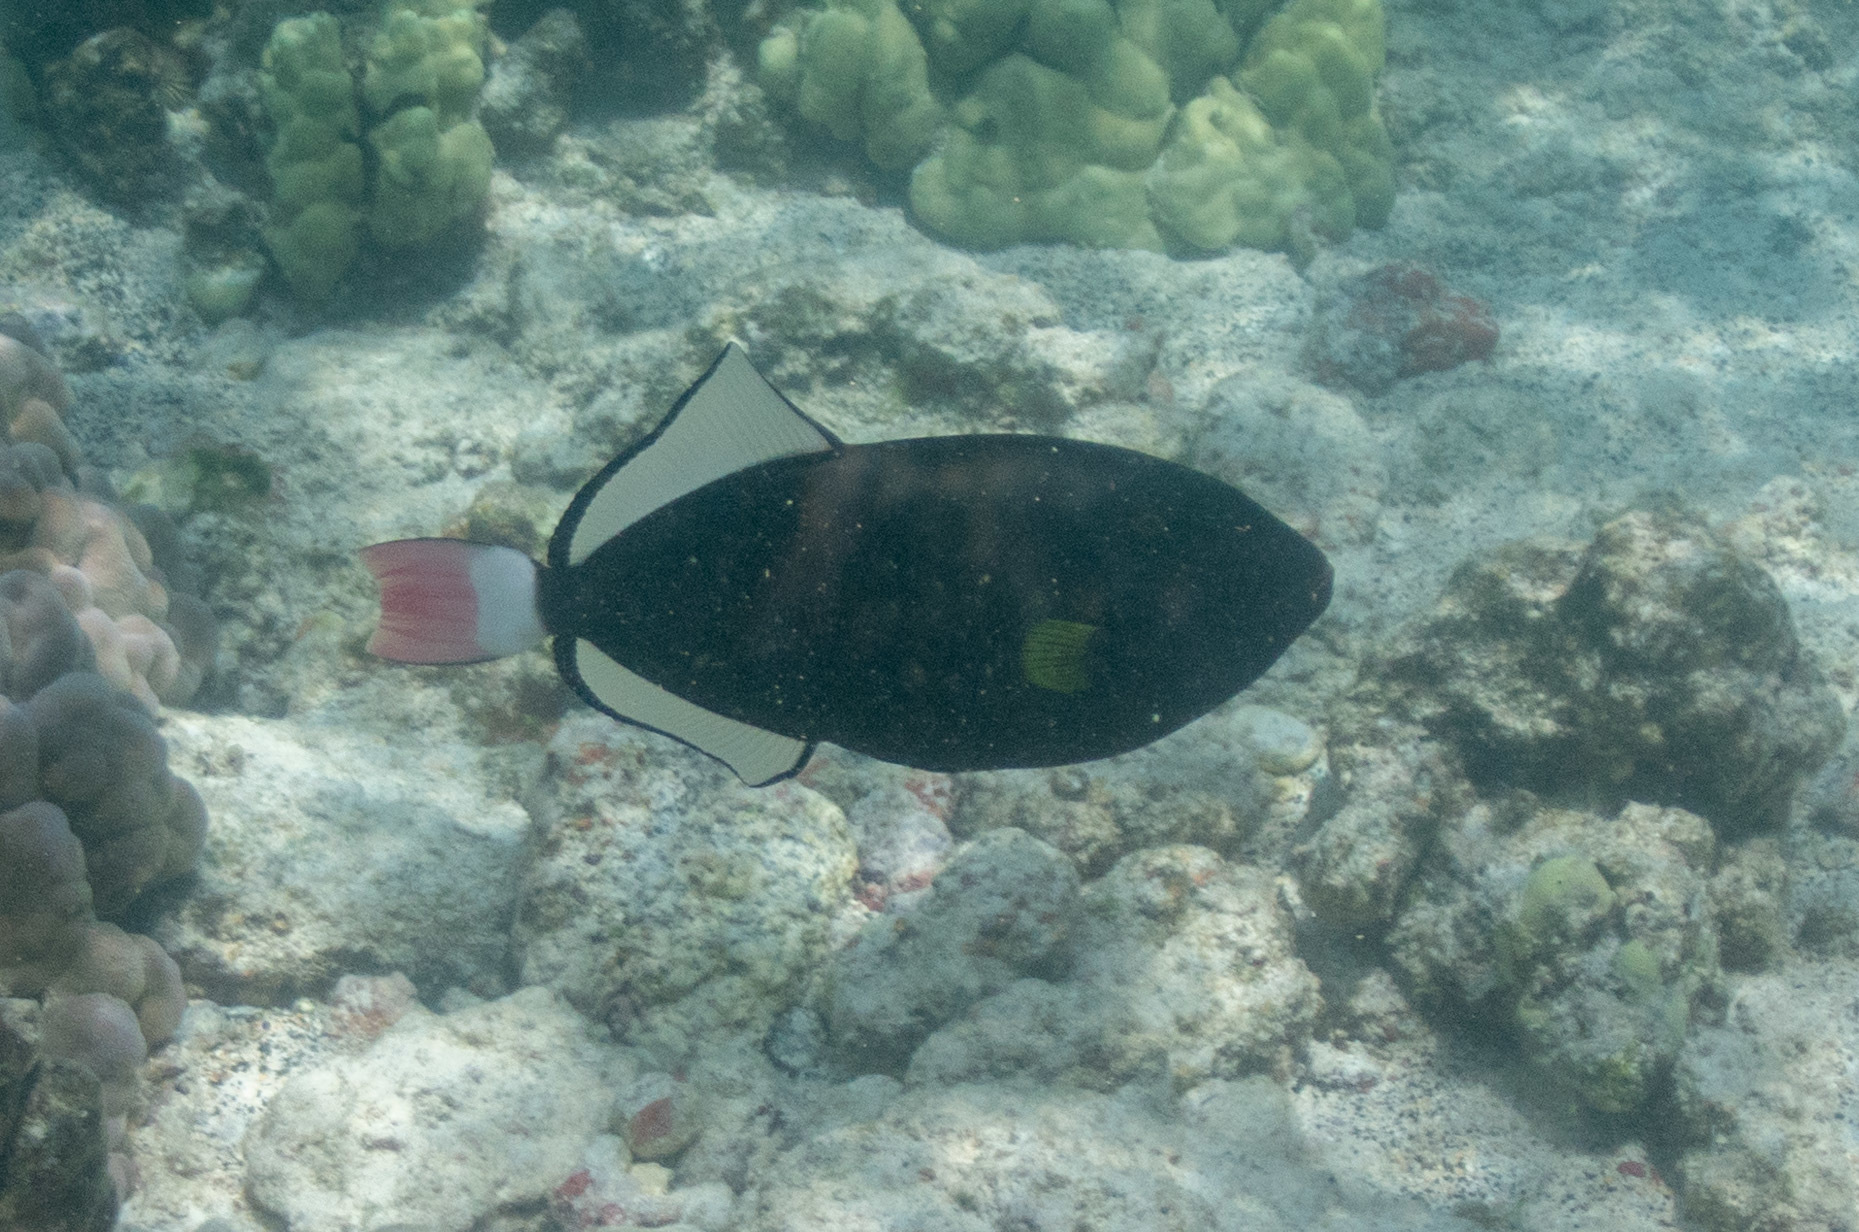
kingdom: Animalia
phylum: Chordata
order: Tetraodontiformes
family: Balistidae
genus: Melichthys
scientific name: Melichthys vidua
